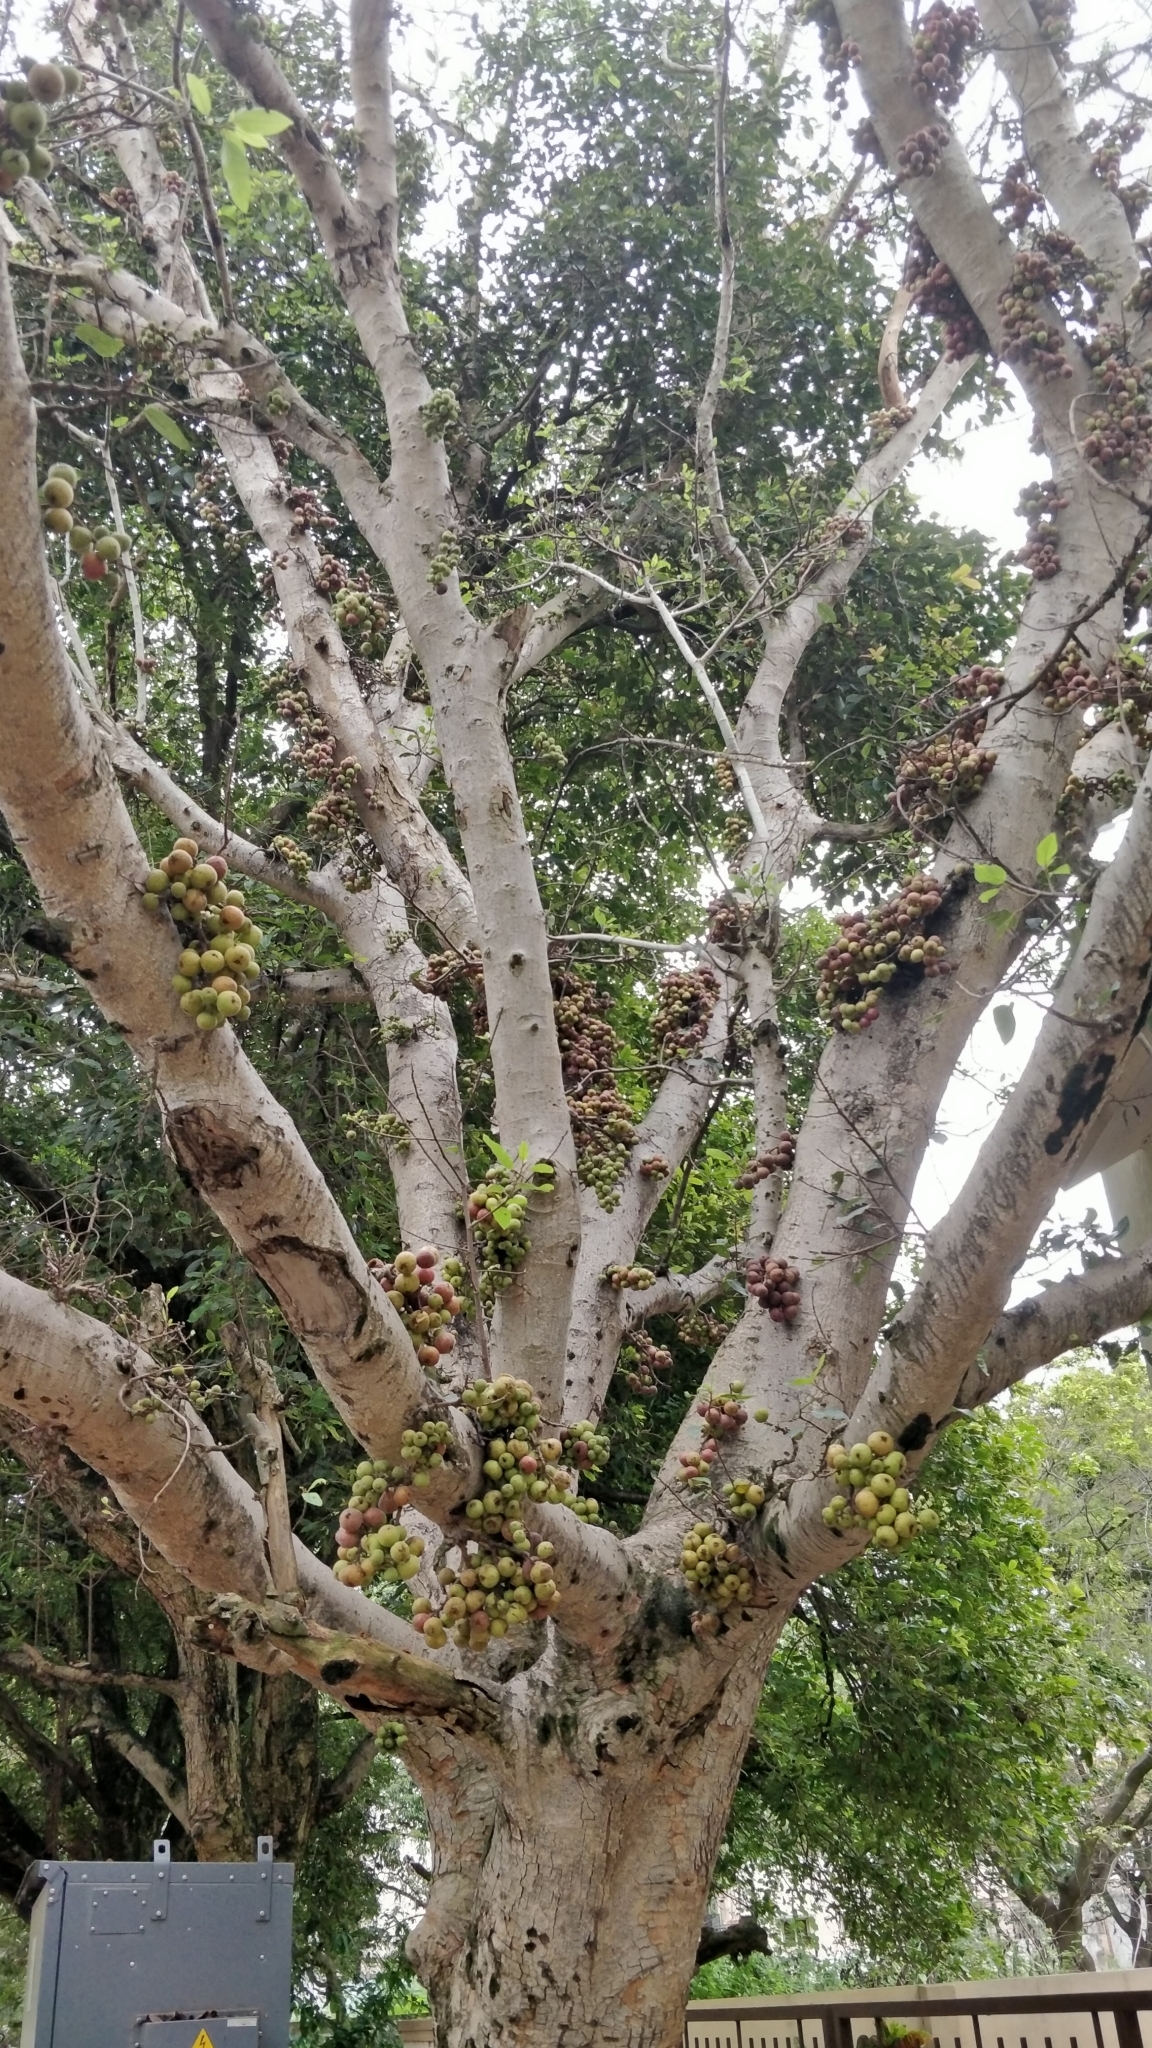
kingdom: Plantae
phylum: Tracheophyta
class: Magnoliopsida
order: Rosales
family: Moraceae
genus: Ficus
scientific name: Ficus racemosa
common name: Cluster fig
